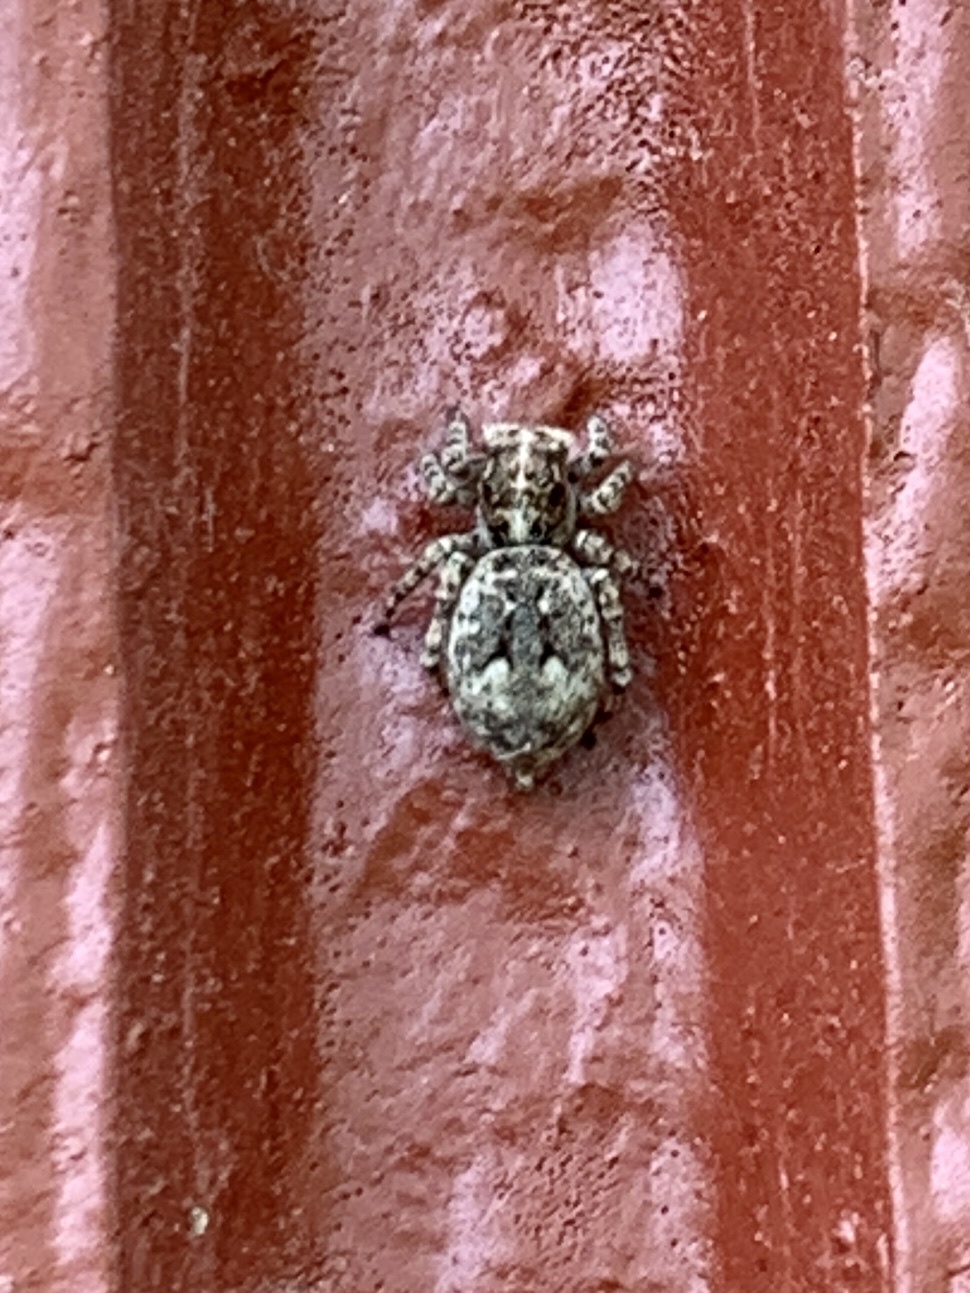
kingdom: Animalia
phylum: Arthropoda
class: Arachnida
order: Araneae
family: Salticidae
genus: Attulus
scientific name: Attulus fasciger
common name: Asiatic wall jumping spider
